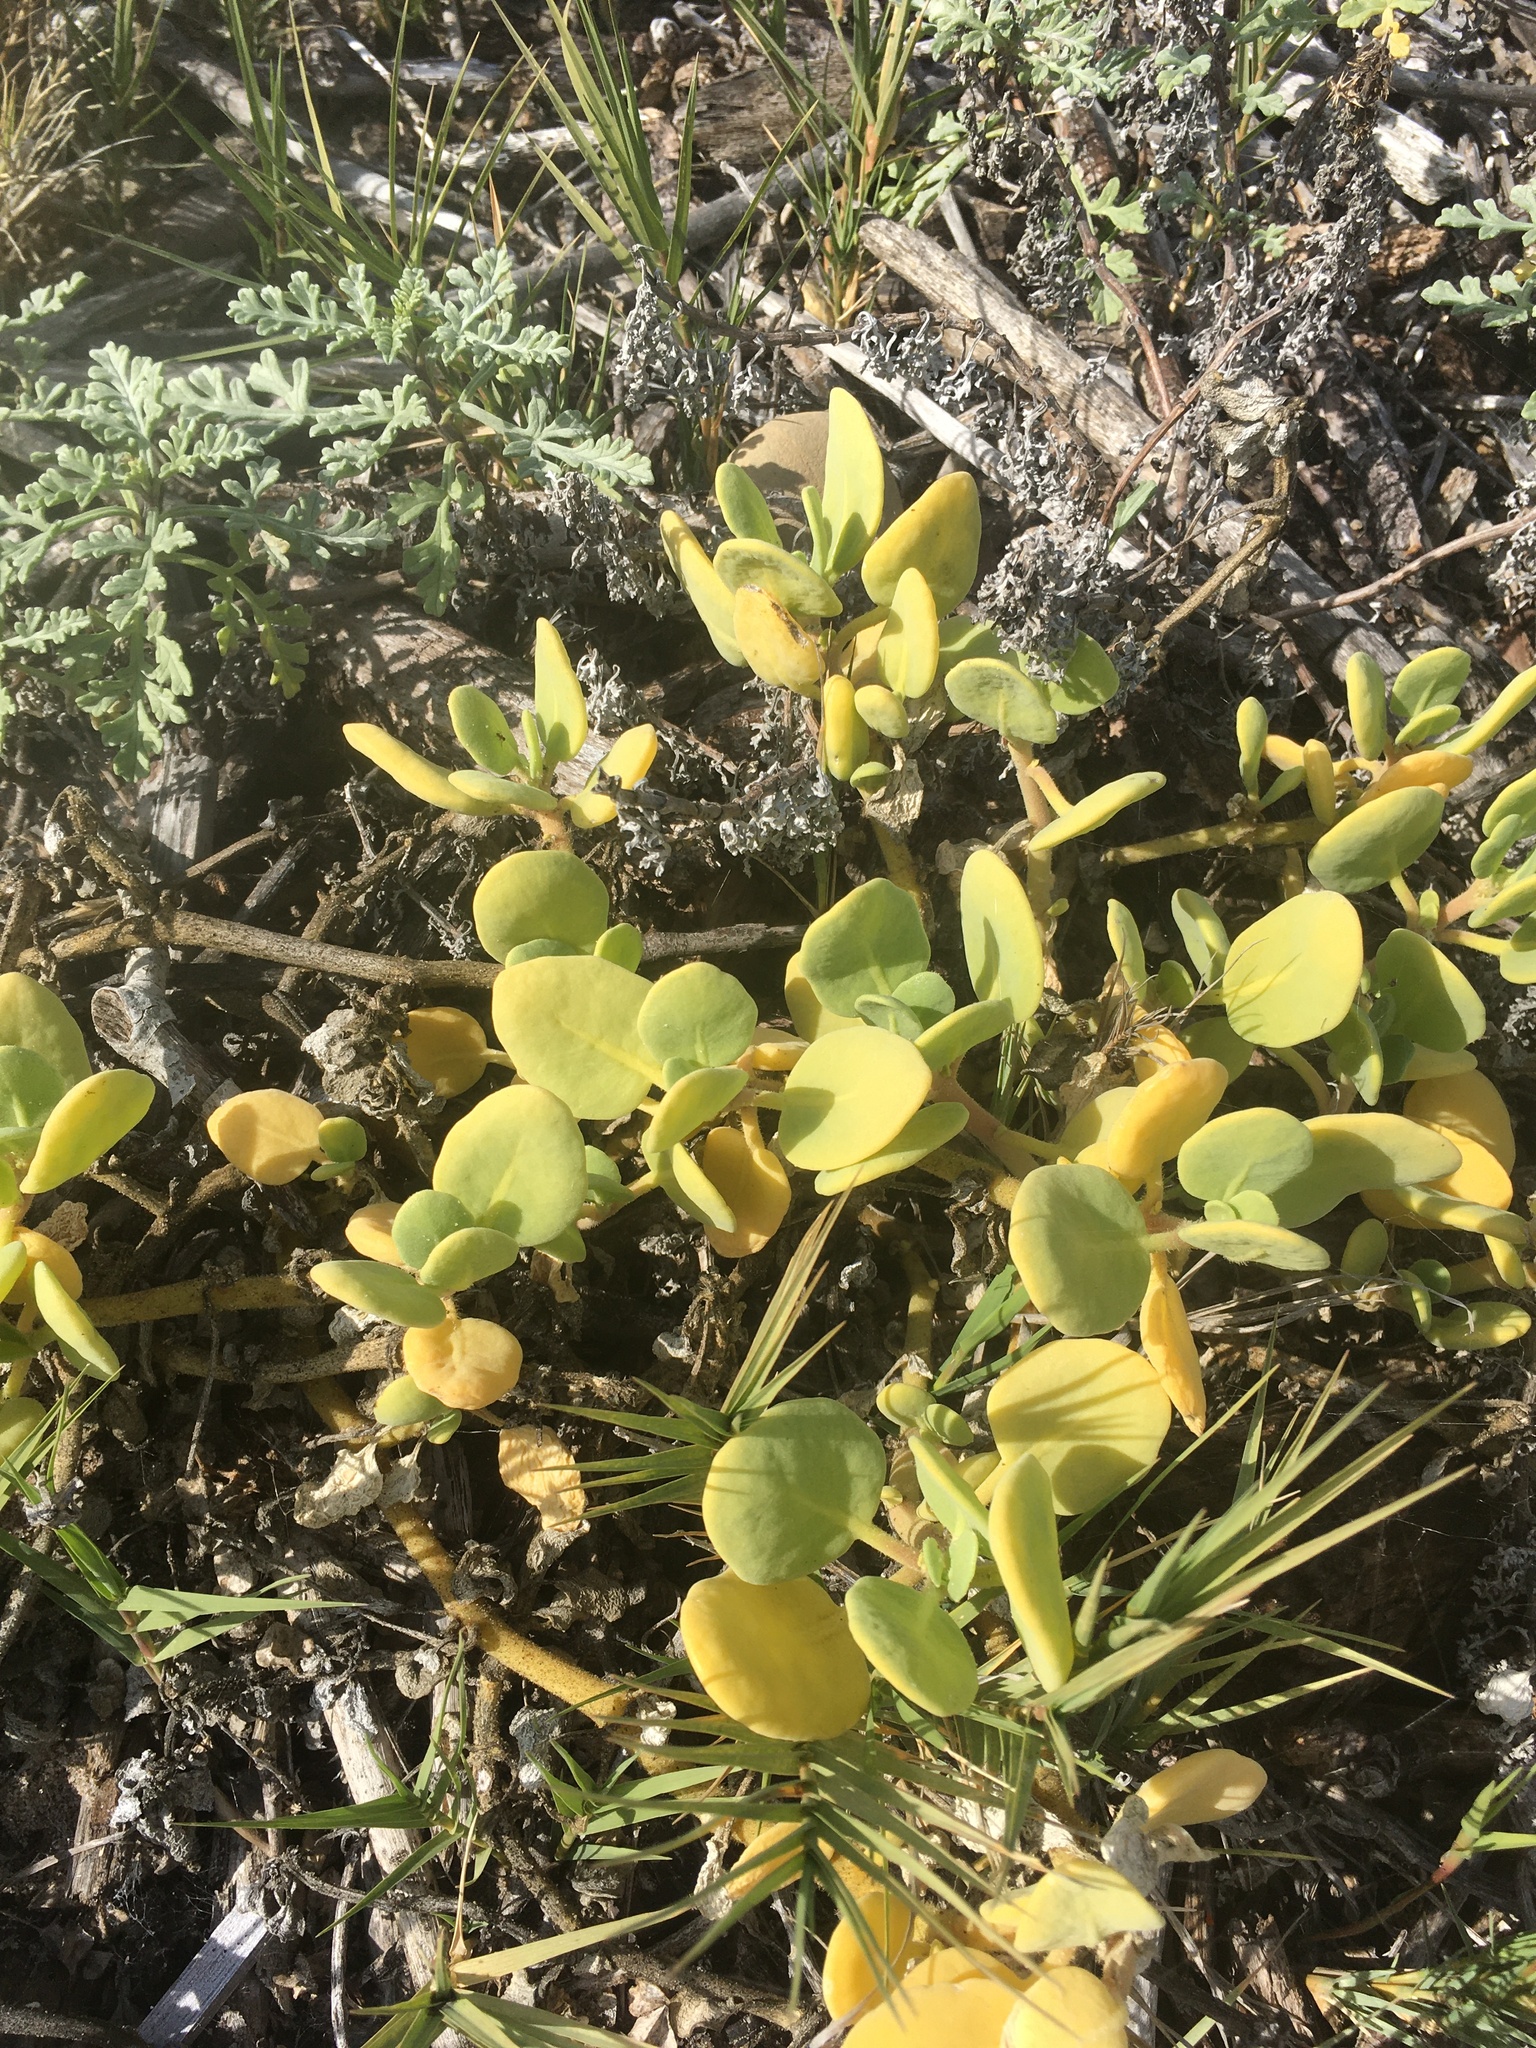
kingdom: Plantae
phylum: Tracheophyta
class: Magnoliopsida
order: Caryophyllales
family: Nyctaginaceae
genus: Abronia
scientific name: Abronia maritima
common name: Red sand-verbena
